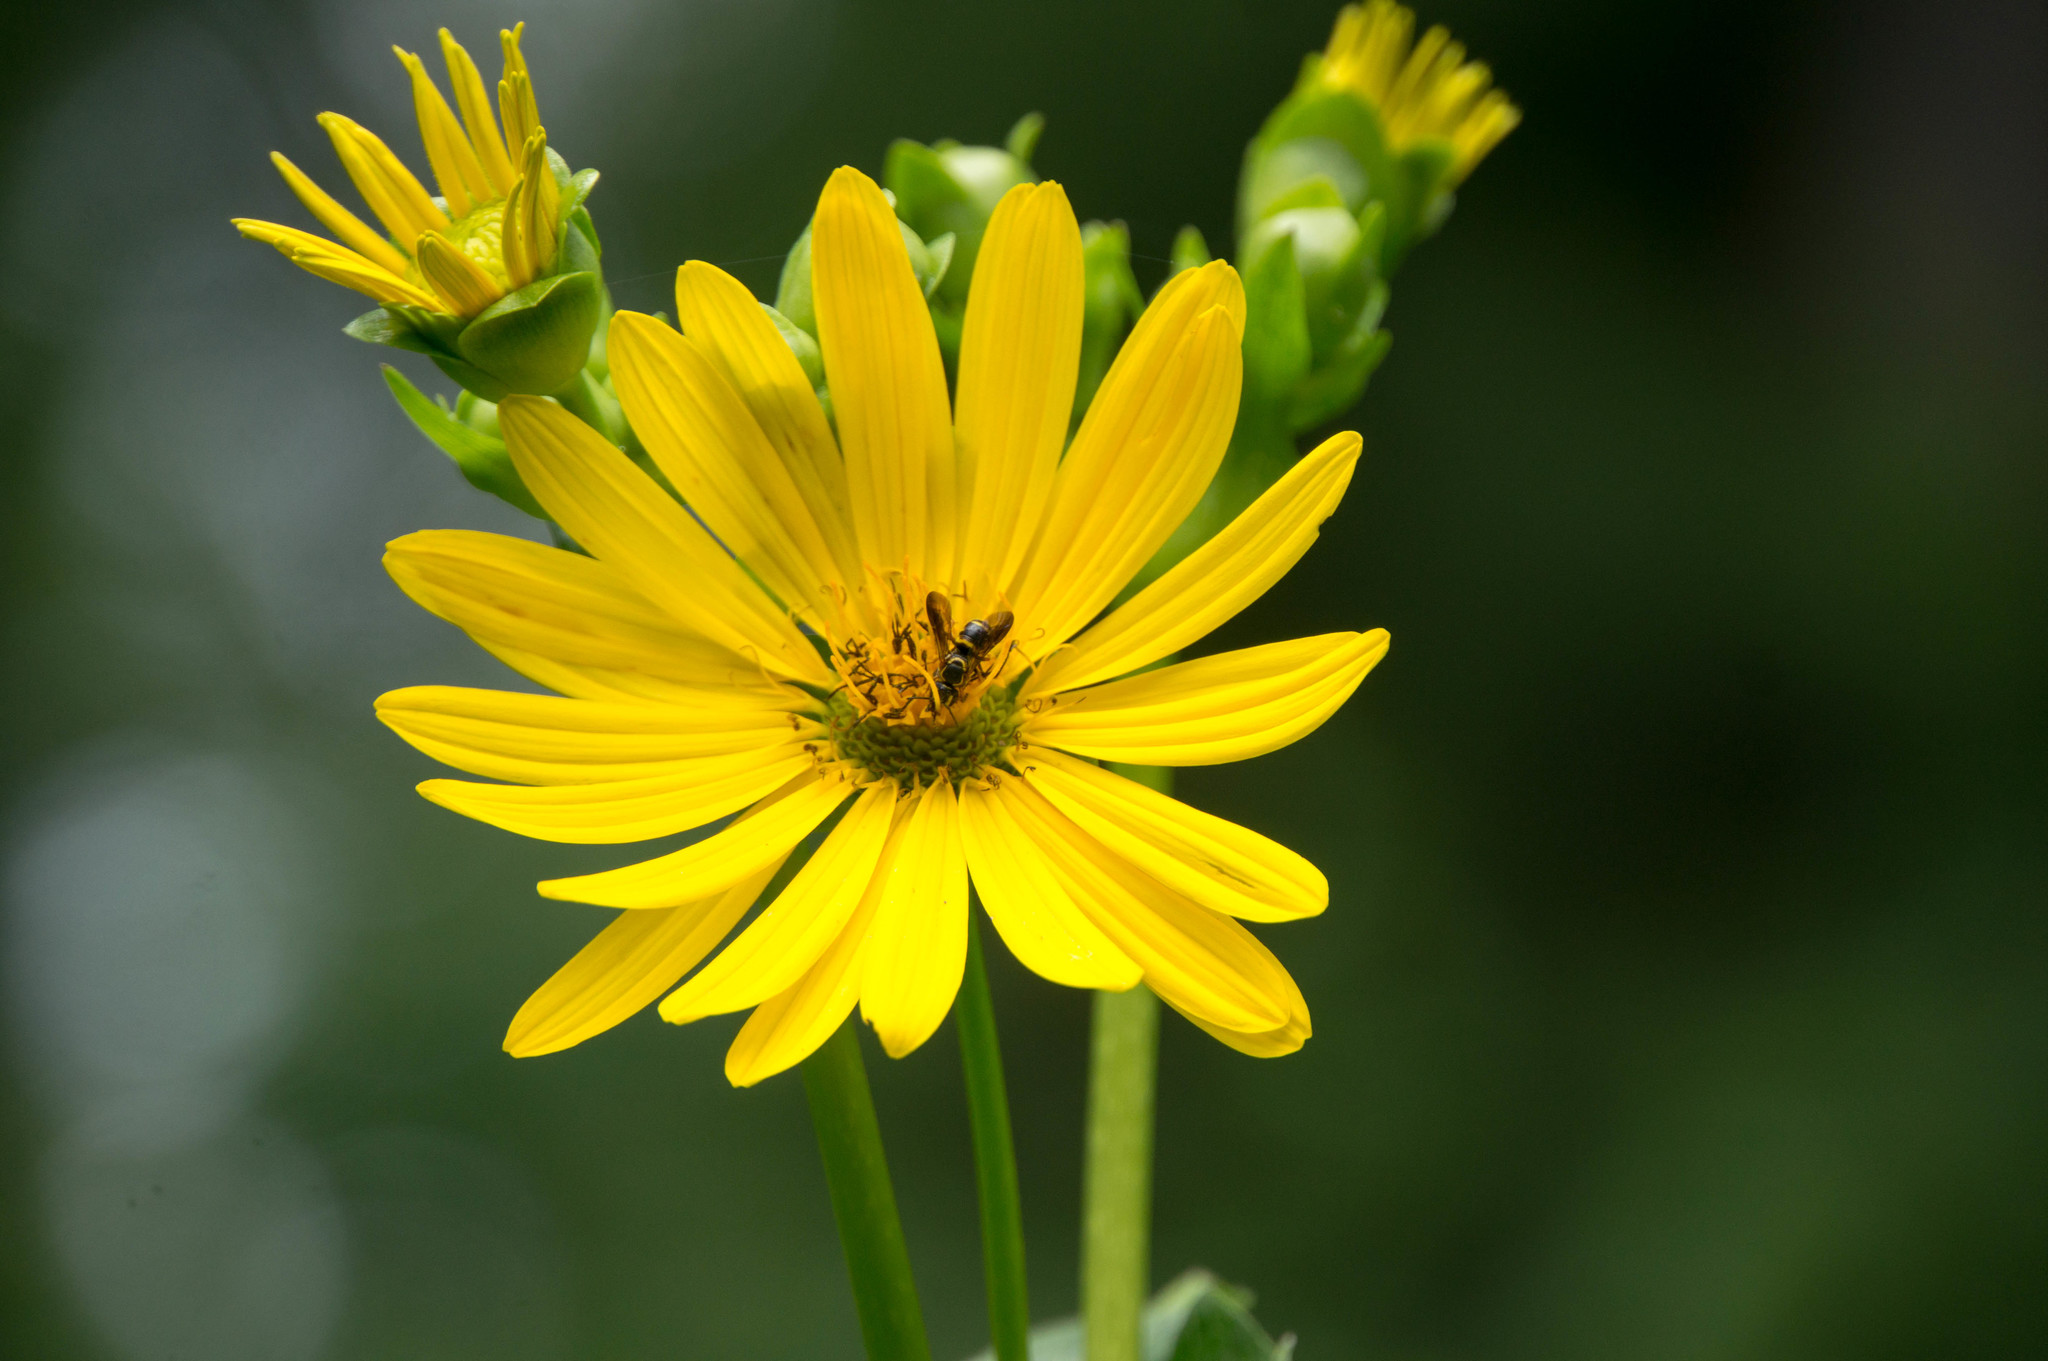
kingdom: Animalia
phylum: Arthropoda
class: Insecta
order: Hymenoptera
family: Megachilidae
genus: Stelis
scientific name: Stelis louisae
